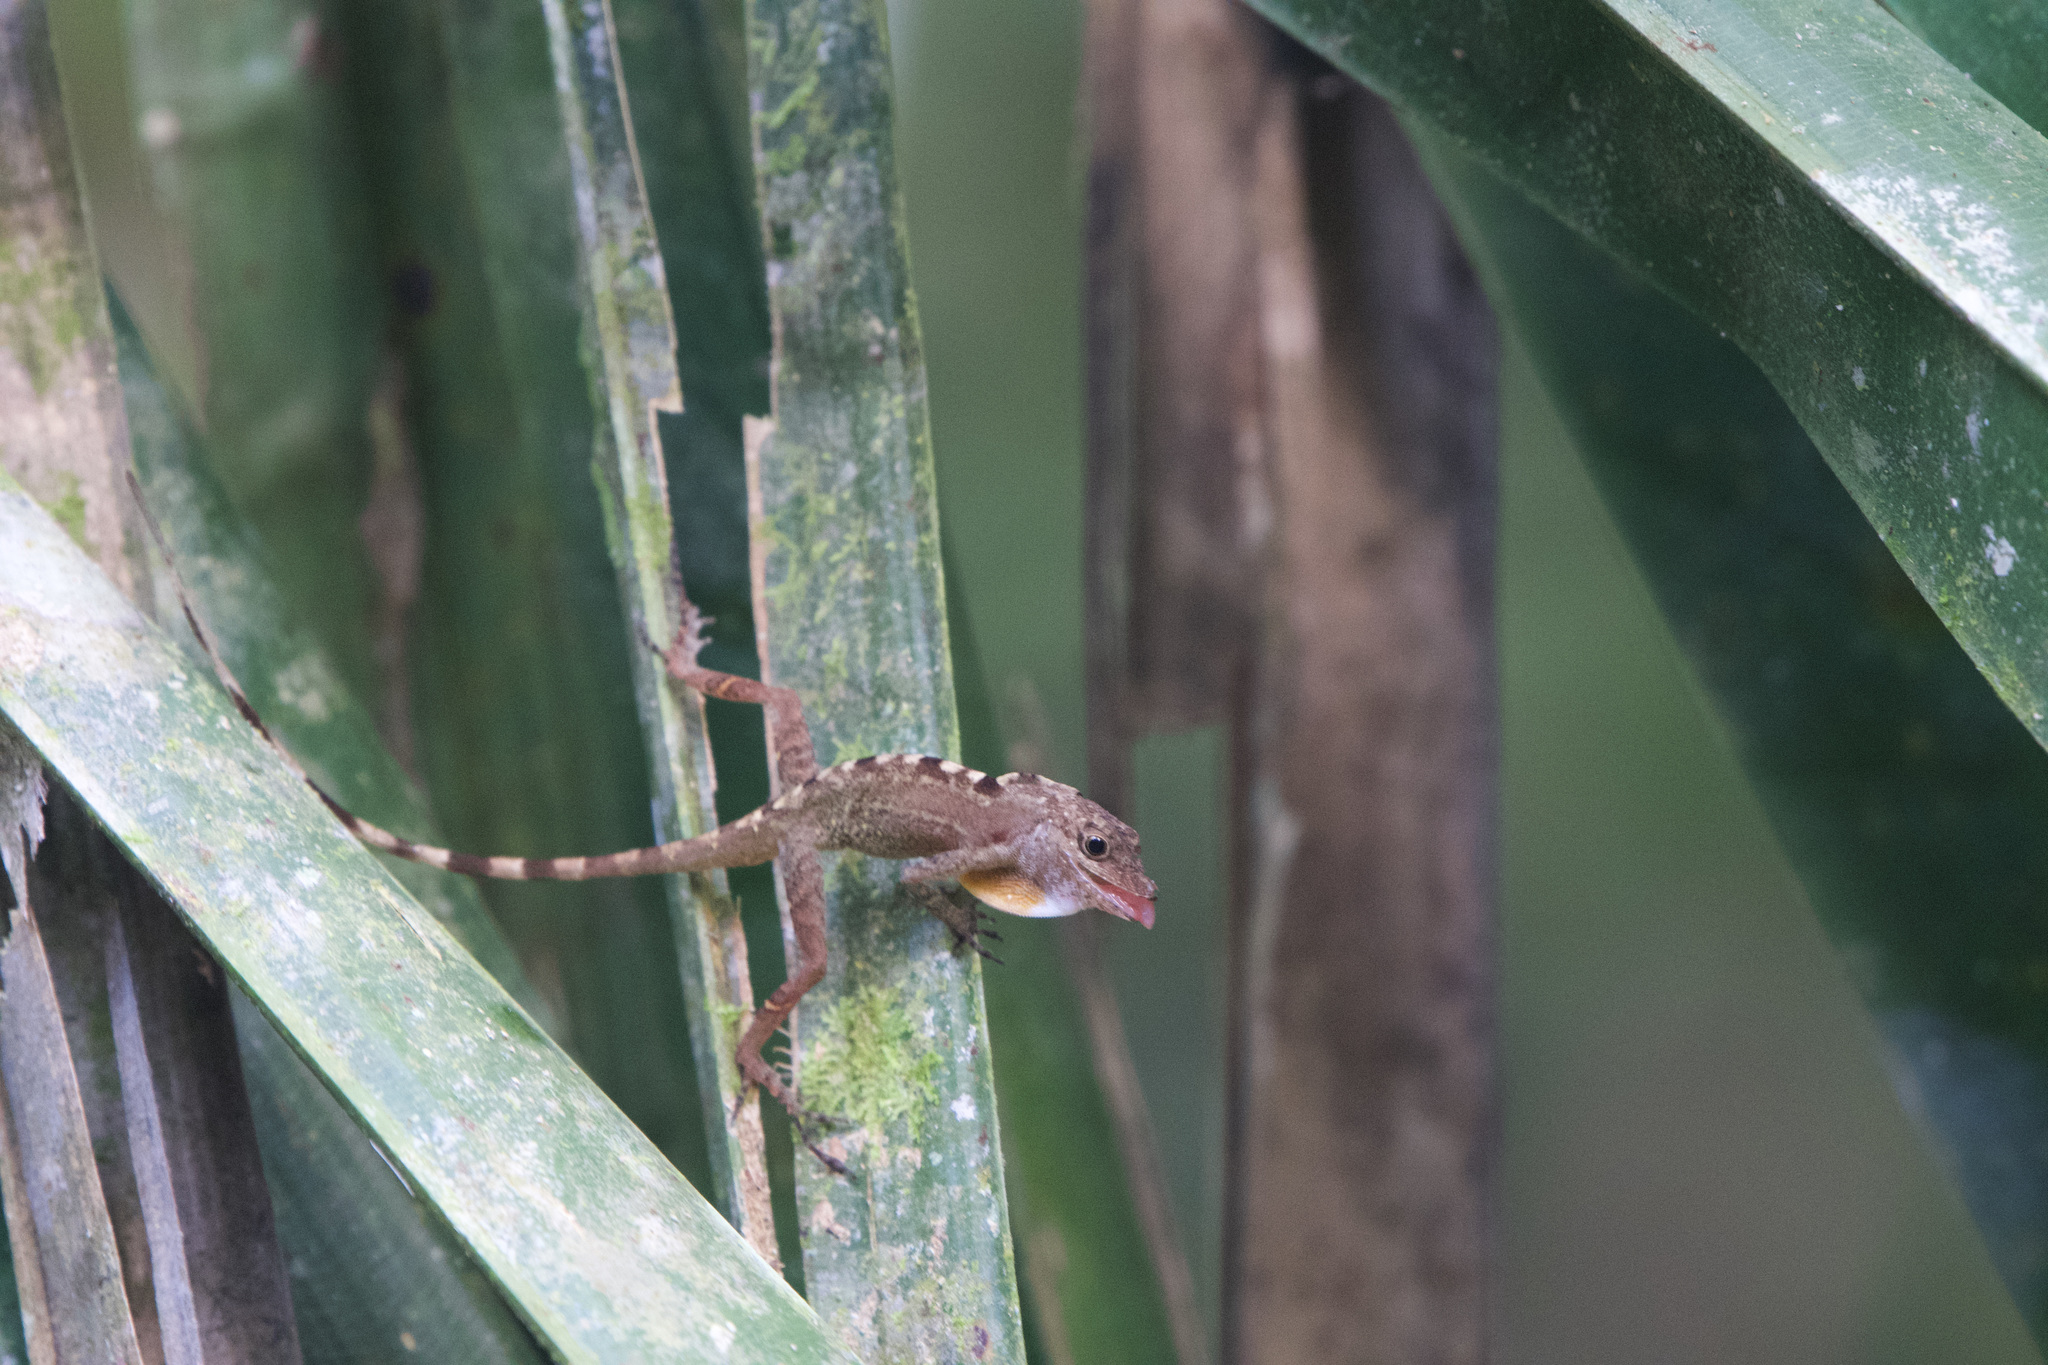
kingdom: Animalia
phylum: Chordata
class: Squamata
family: Dactyloidae
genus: Anolis
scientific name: Anolis limifrons
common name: Border anole
